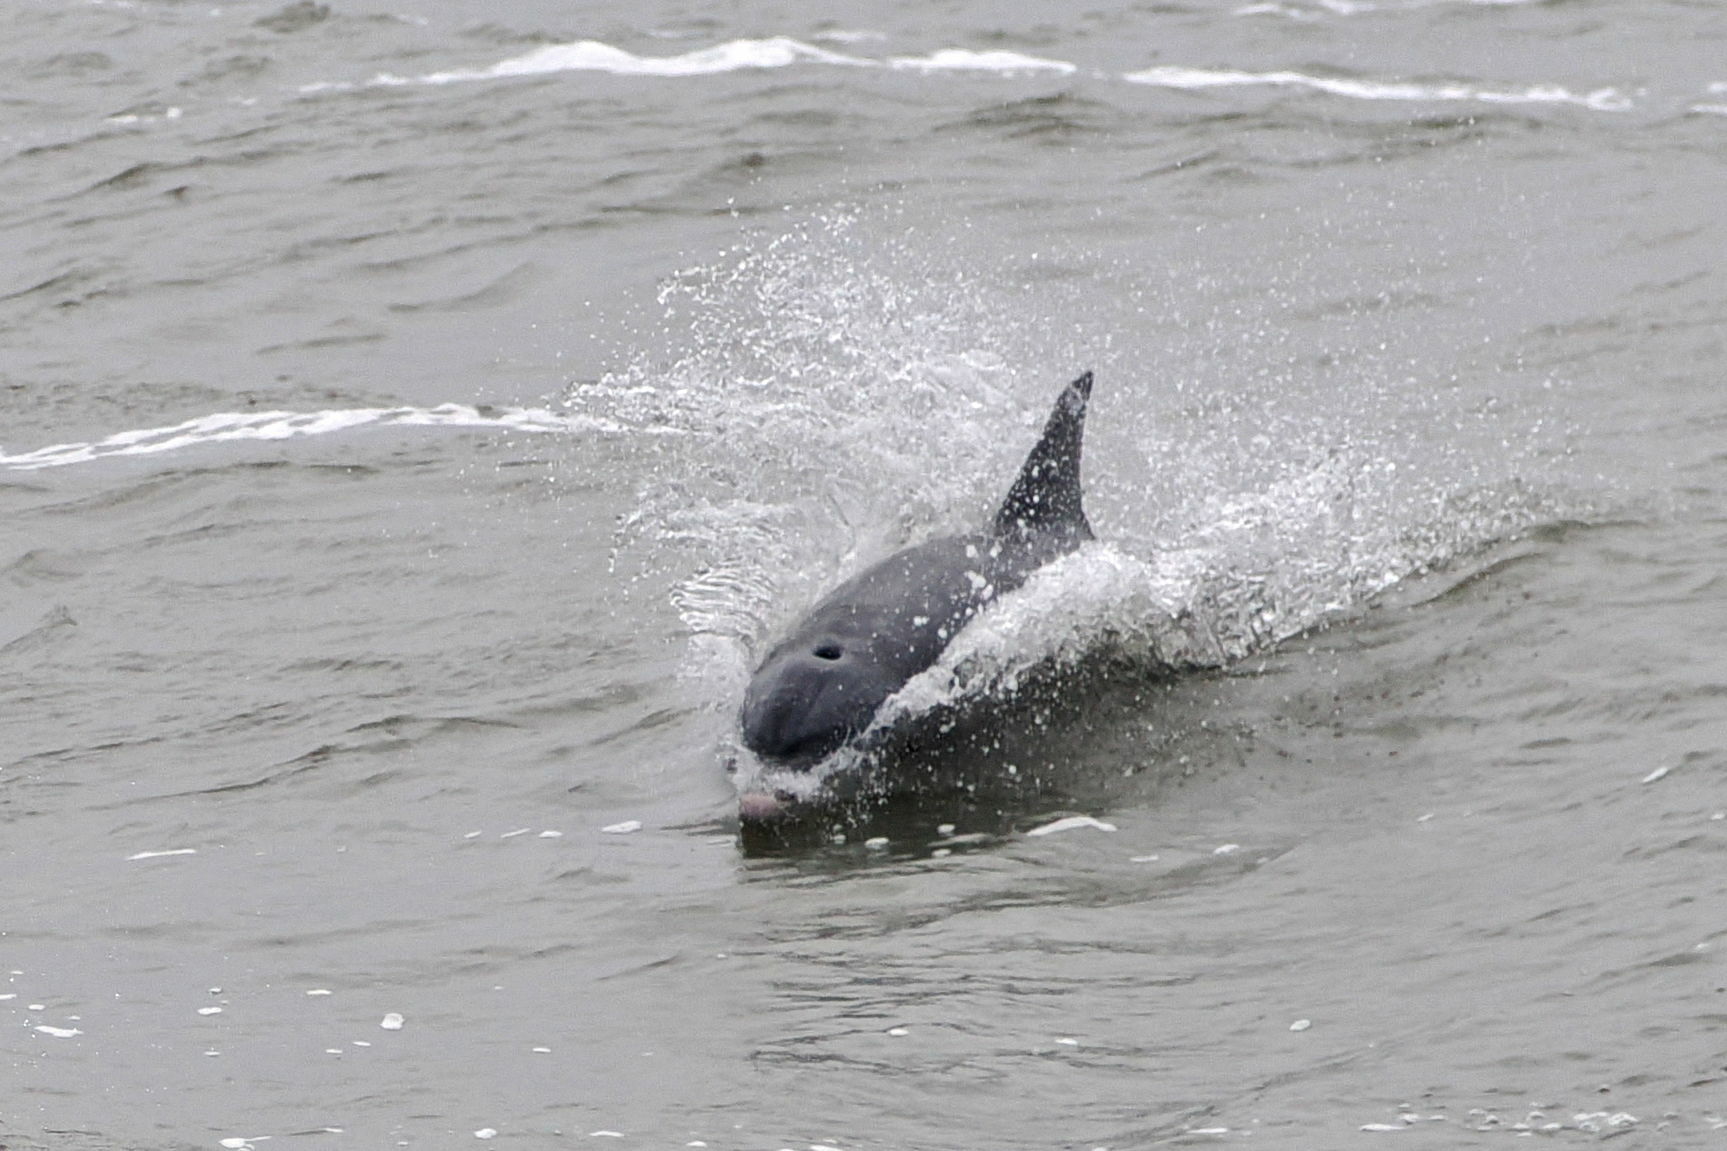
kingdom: Animalia
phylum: Chordata
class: Mammalia
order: Cetacea
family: Delphinidae
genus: Tursiops
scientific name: Tursiops truncatus
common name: Bottlenose dolphin
